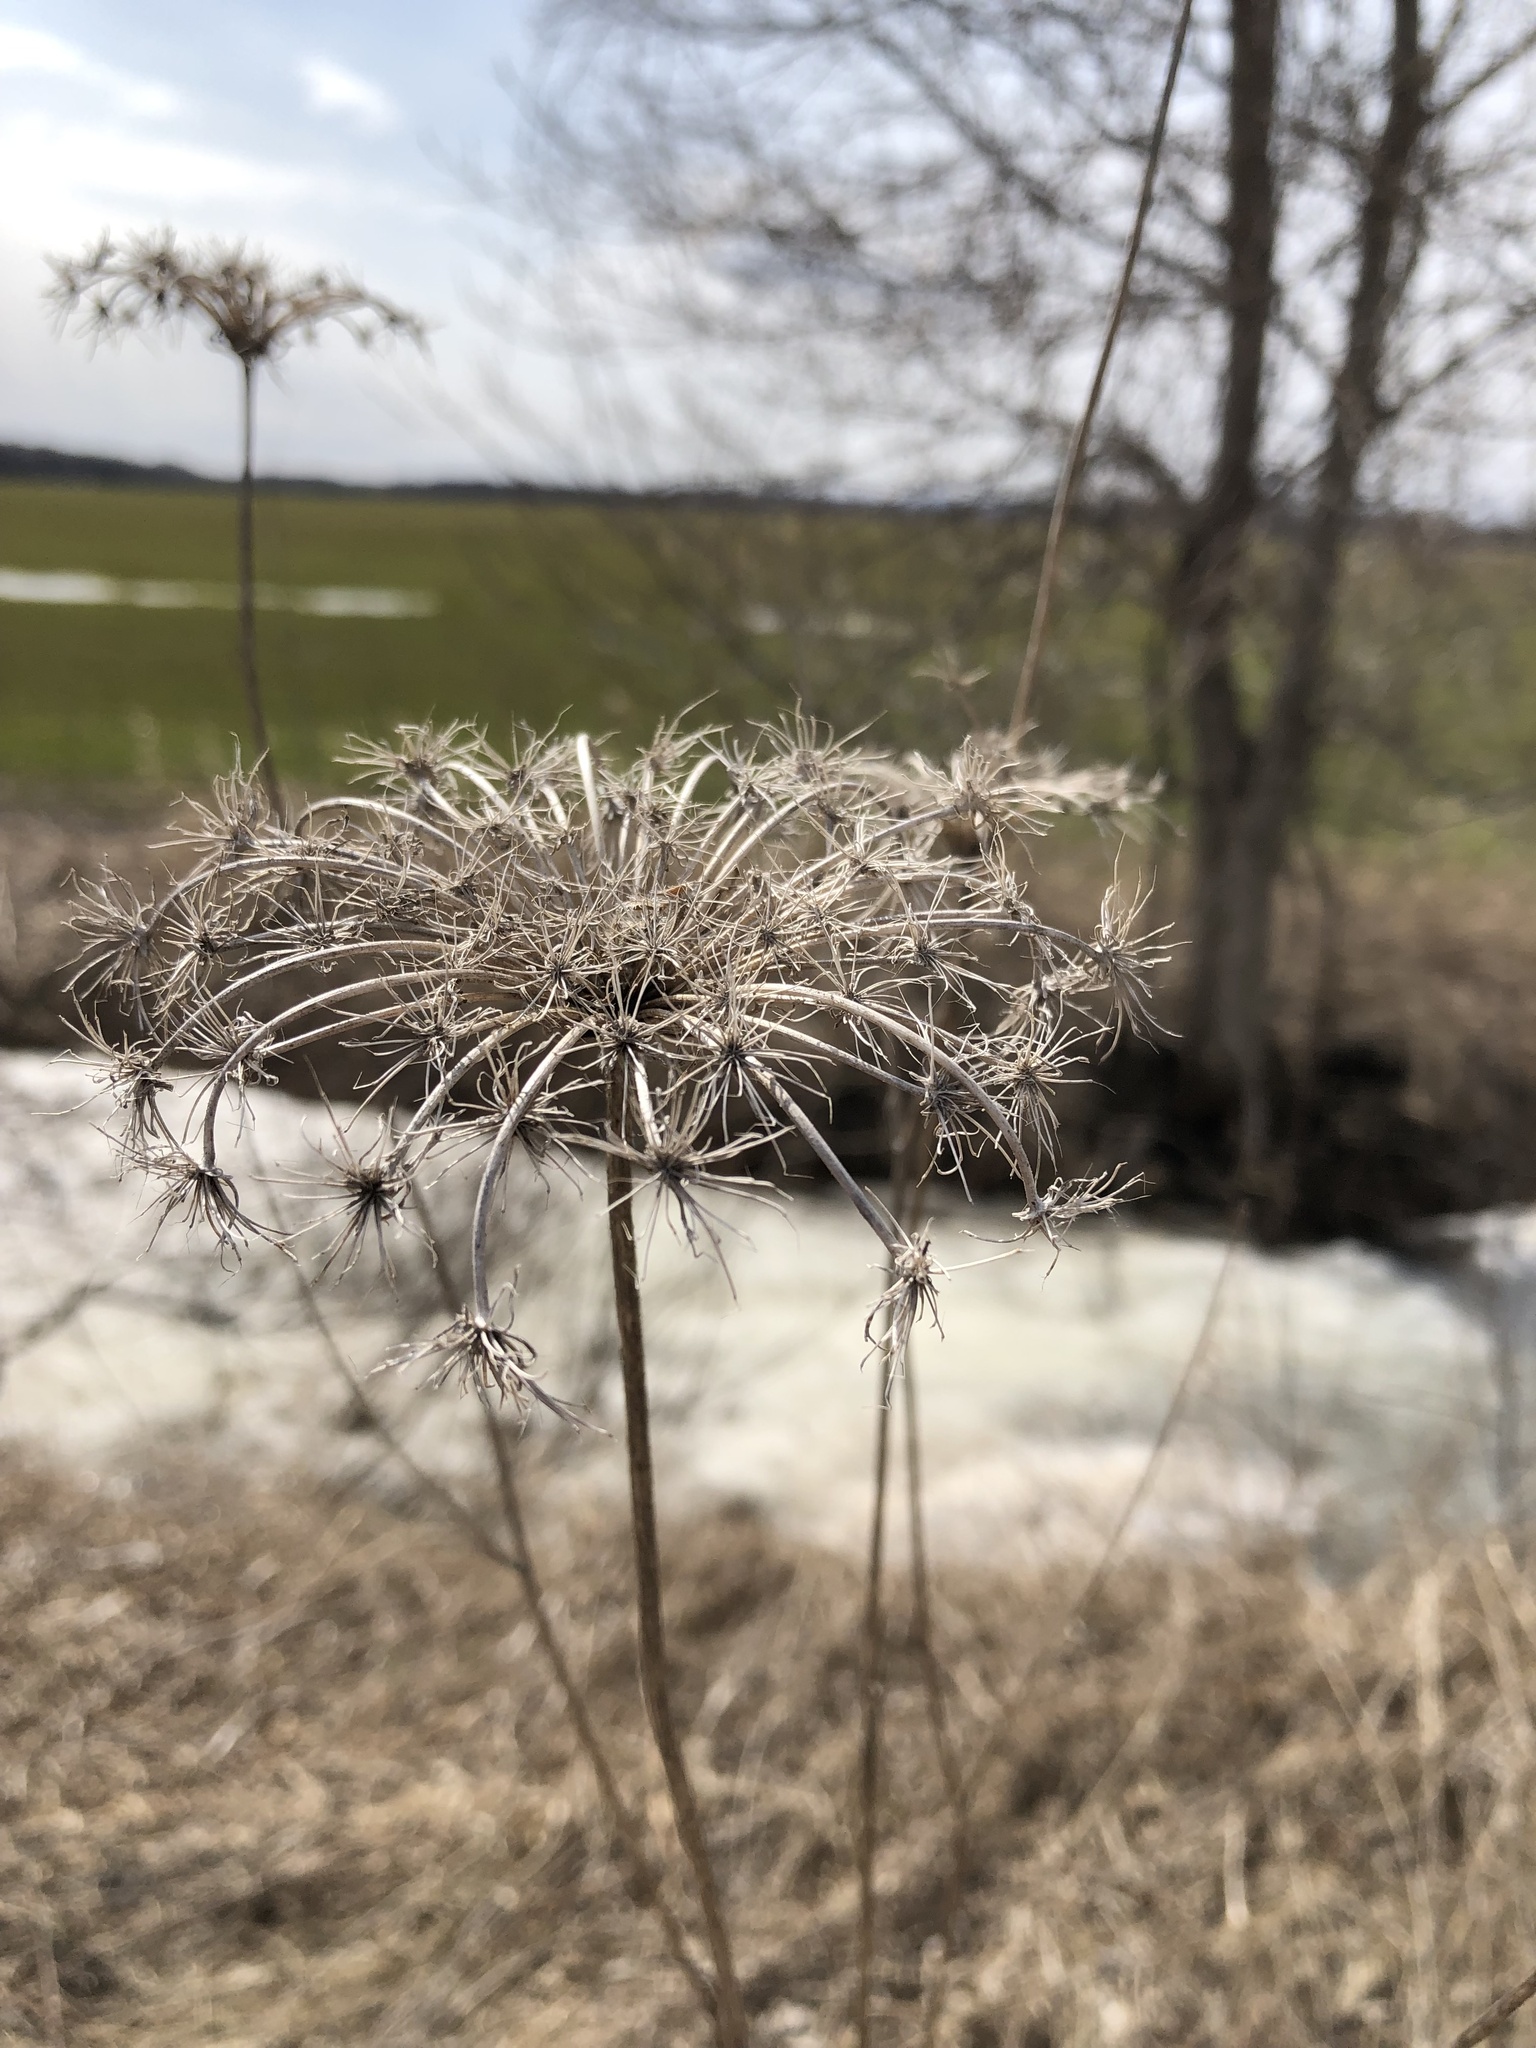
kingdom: Plantae
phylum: Tracheophyta
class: Magnoliopsida
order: Apiales
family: Apiaceae
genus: Daucus
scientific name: Daucus carota
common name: Wild carrot
